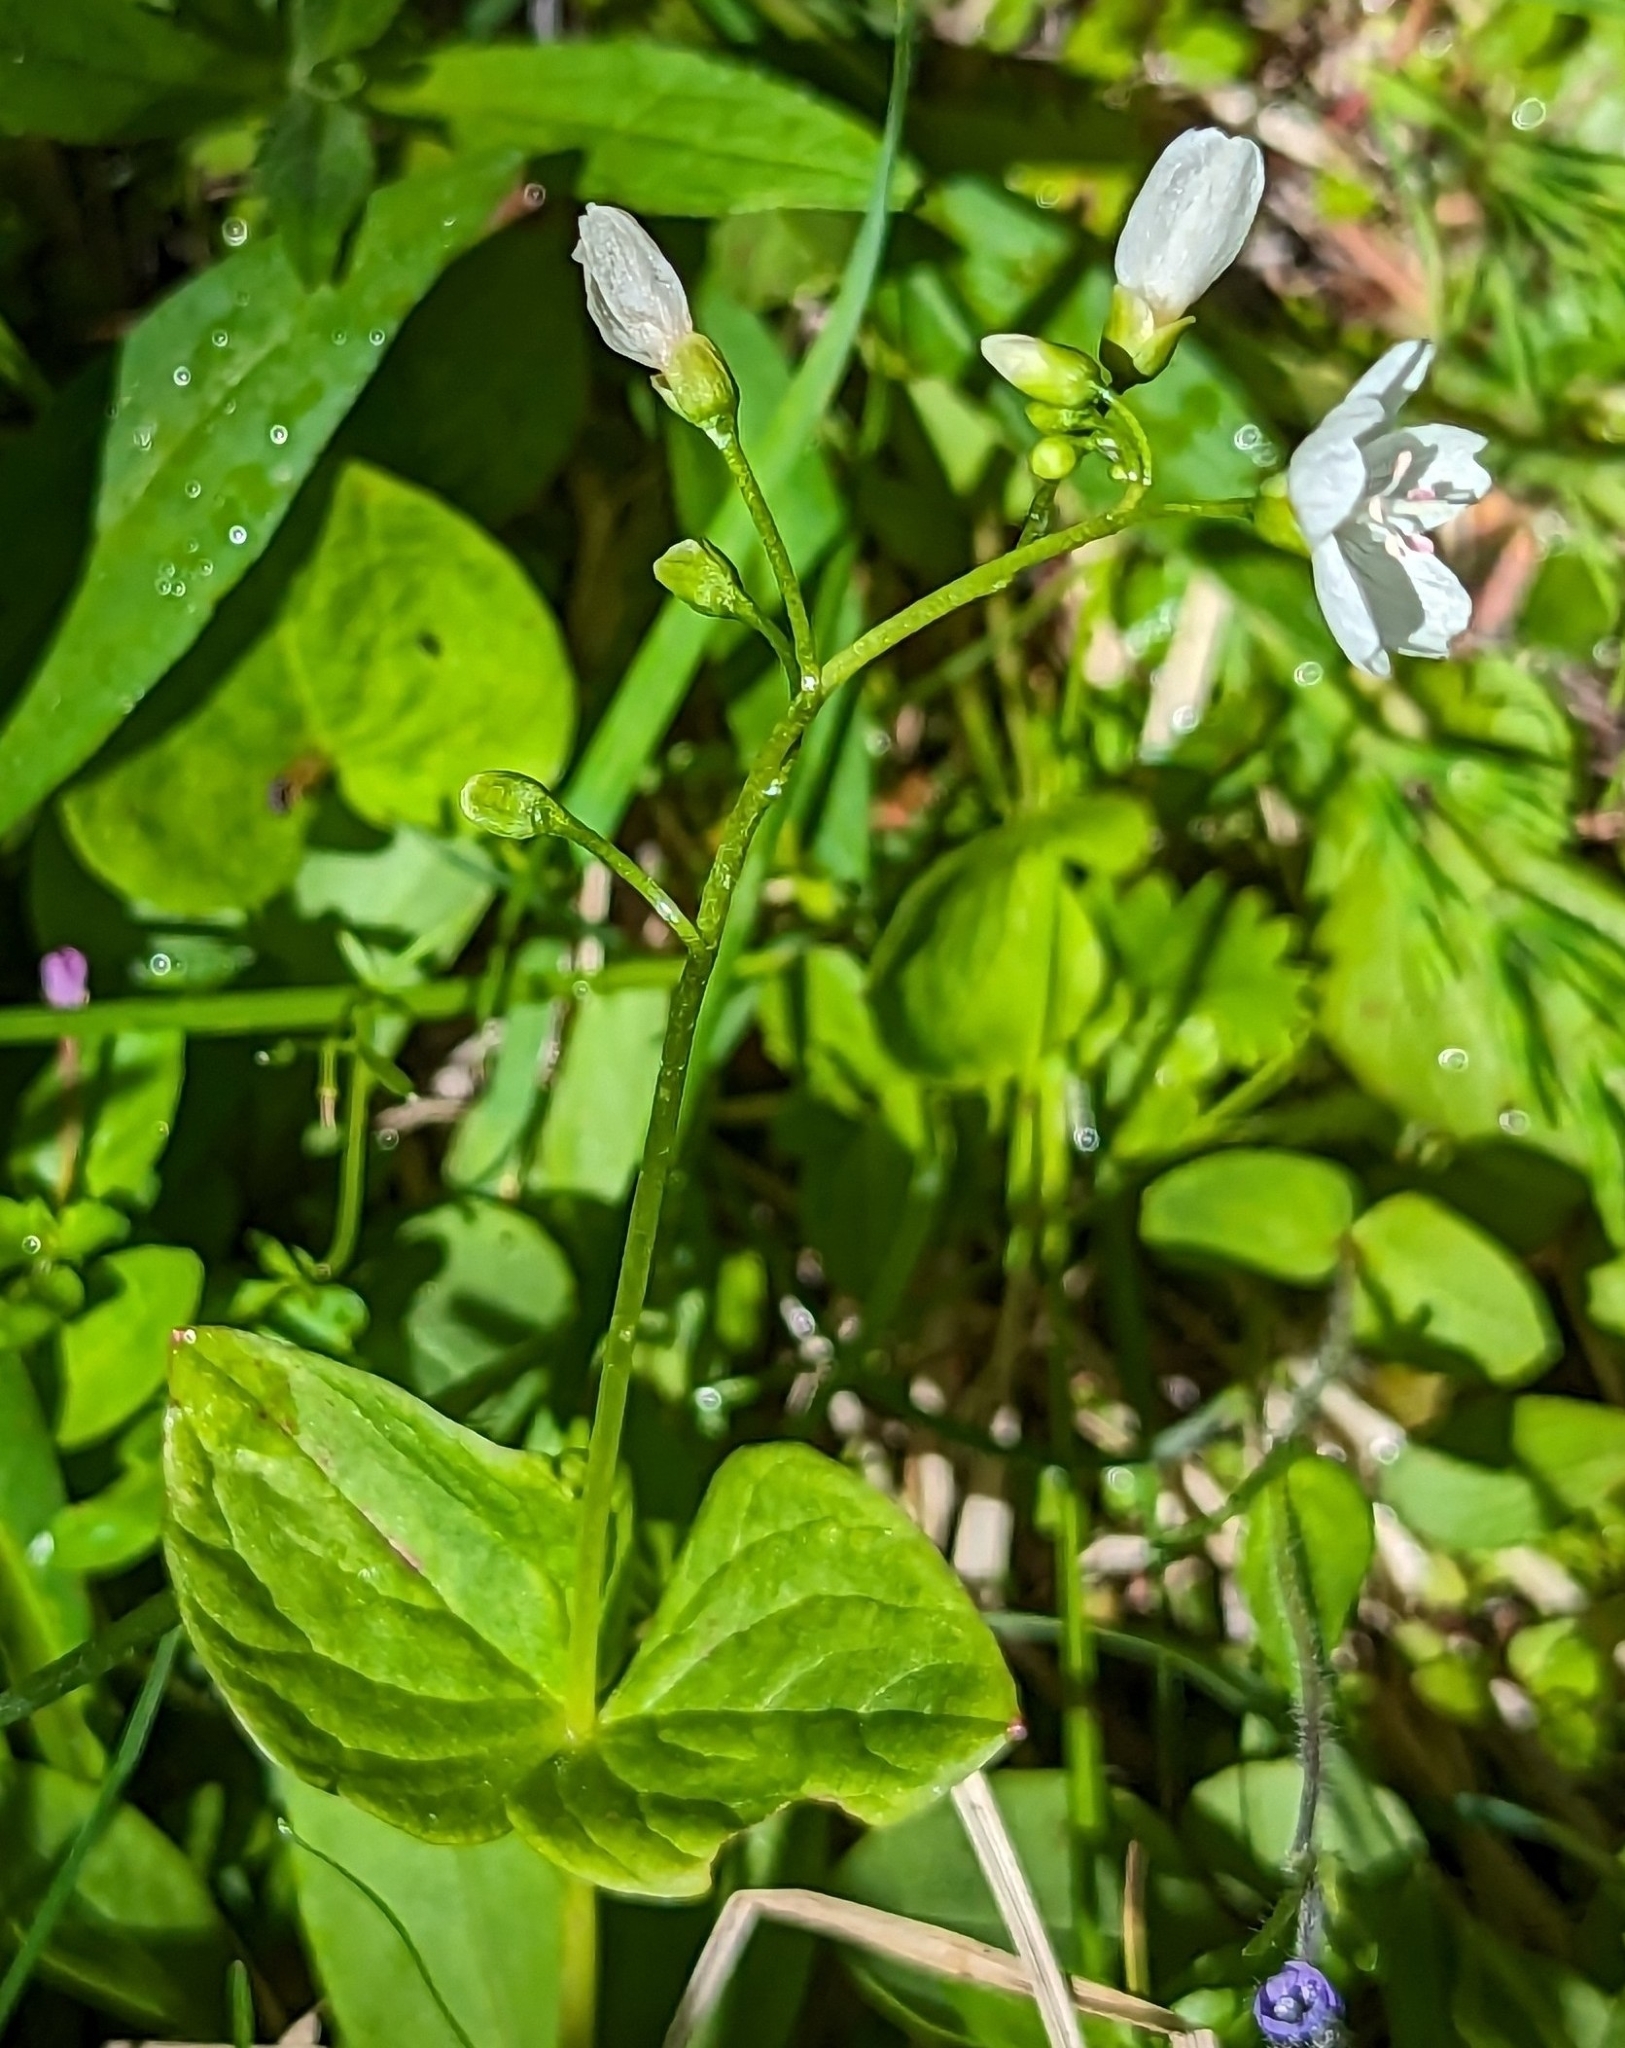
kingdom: Plantae
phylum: Tracheophyta
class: Magnoliopsida
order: Caryophyllales
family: Montiaceae
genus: Claytonia
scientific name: Claytonia cordifolia
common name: Broad-leaved spring beauty
